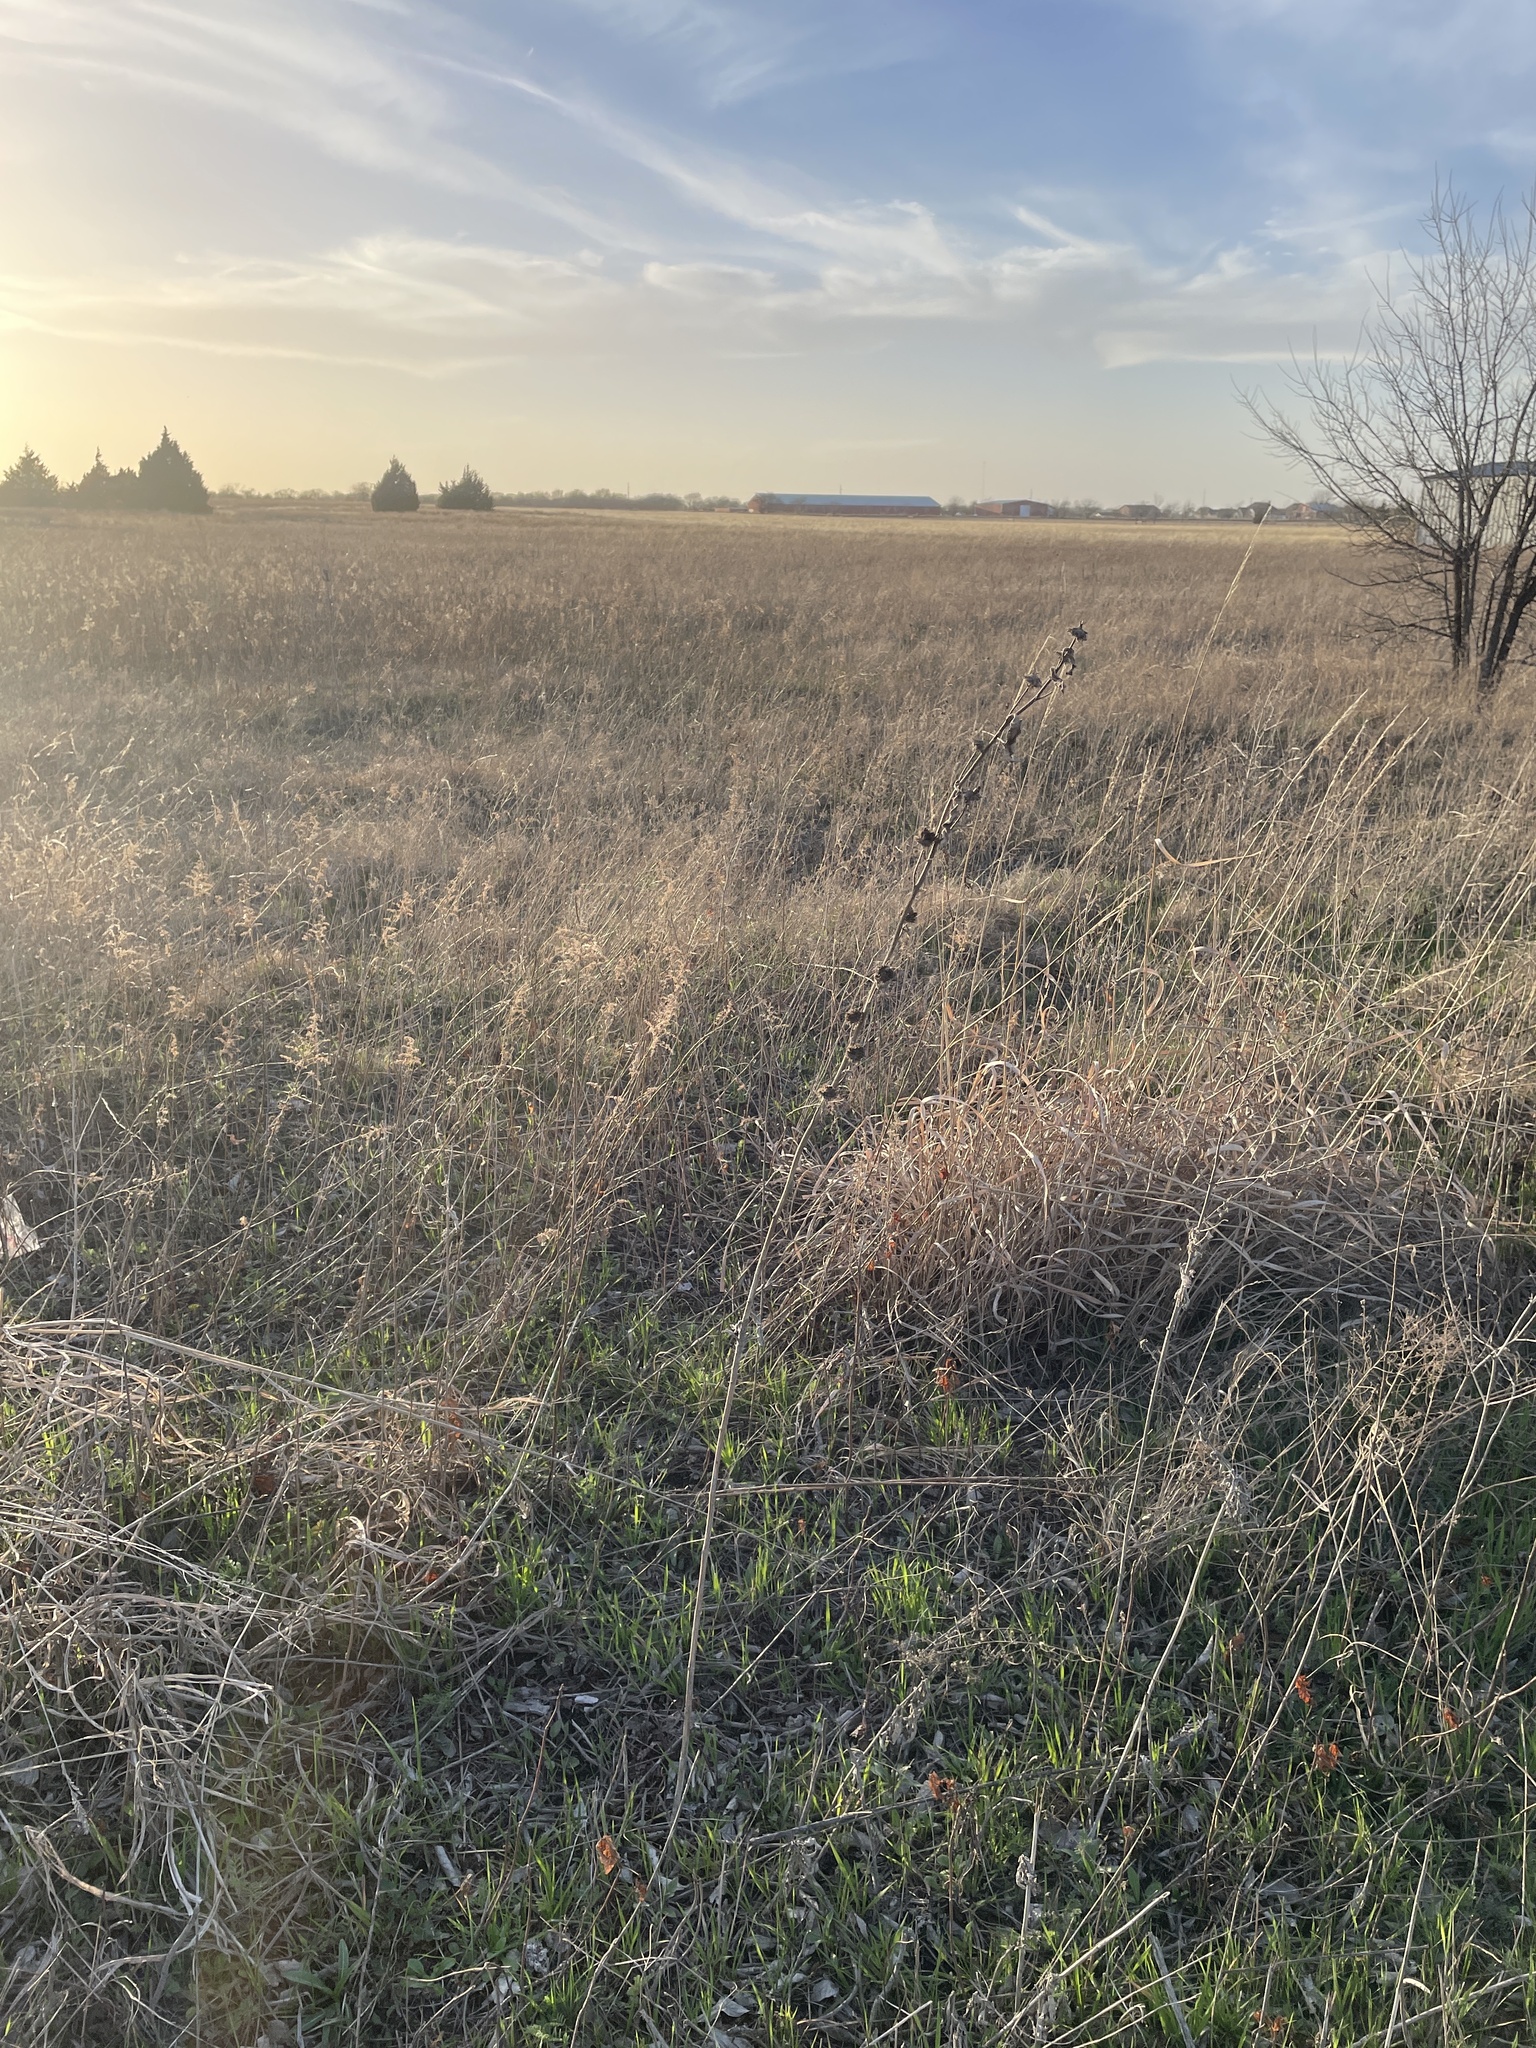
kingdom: Plantae
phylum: Tracheophyta
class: Magnoliopsida
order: Asterales
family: Asteraceae
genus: Helianthus
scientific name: Helianthus maximiliani
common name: Maximilian's sunflower
